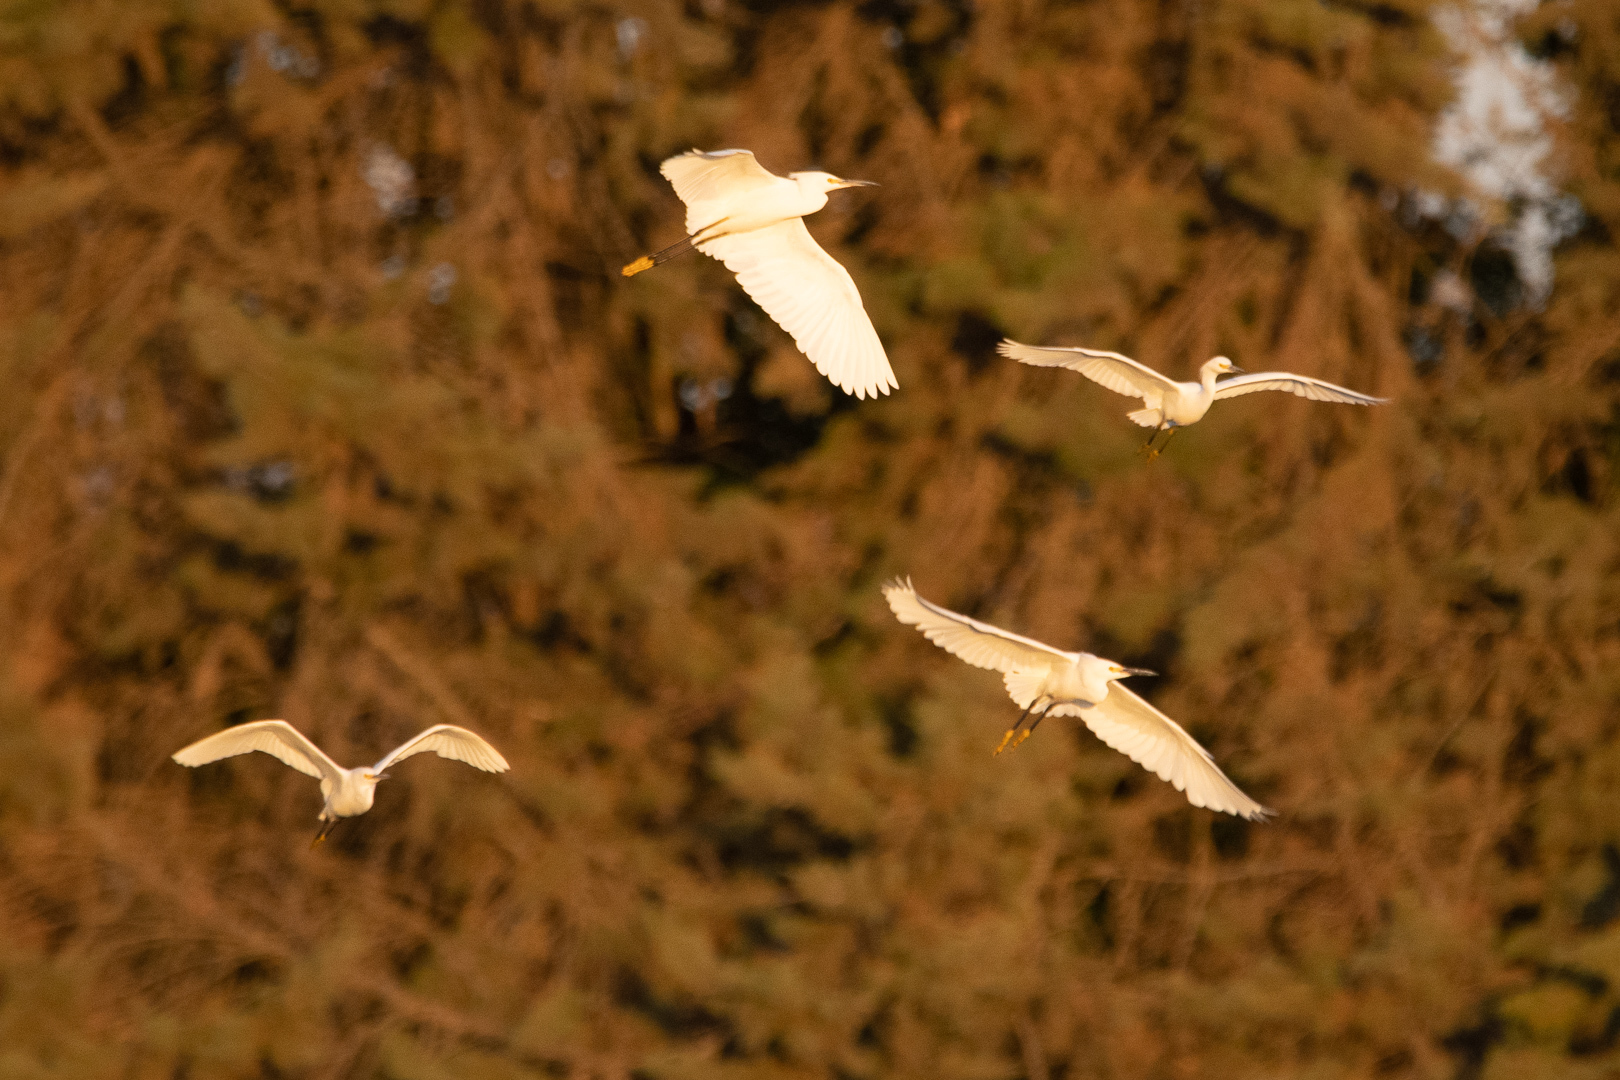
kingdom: Animalia
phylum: Chordata
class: Aves
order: Pelecaniformes
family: Ardeidae
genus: Egretta
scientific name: Egretta thula
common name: Snowy egret
